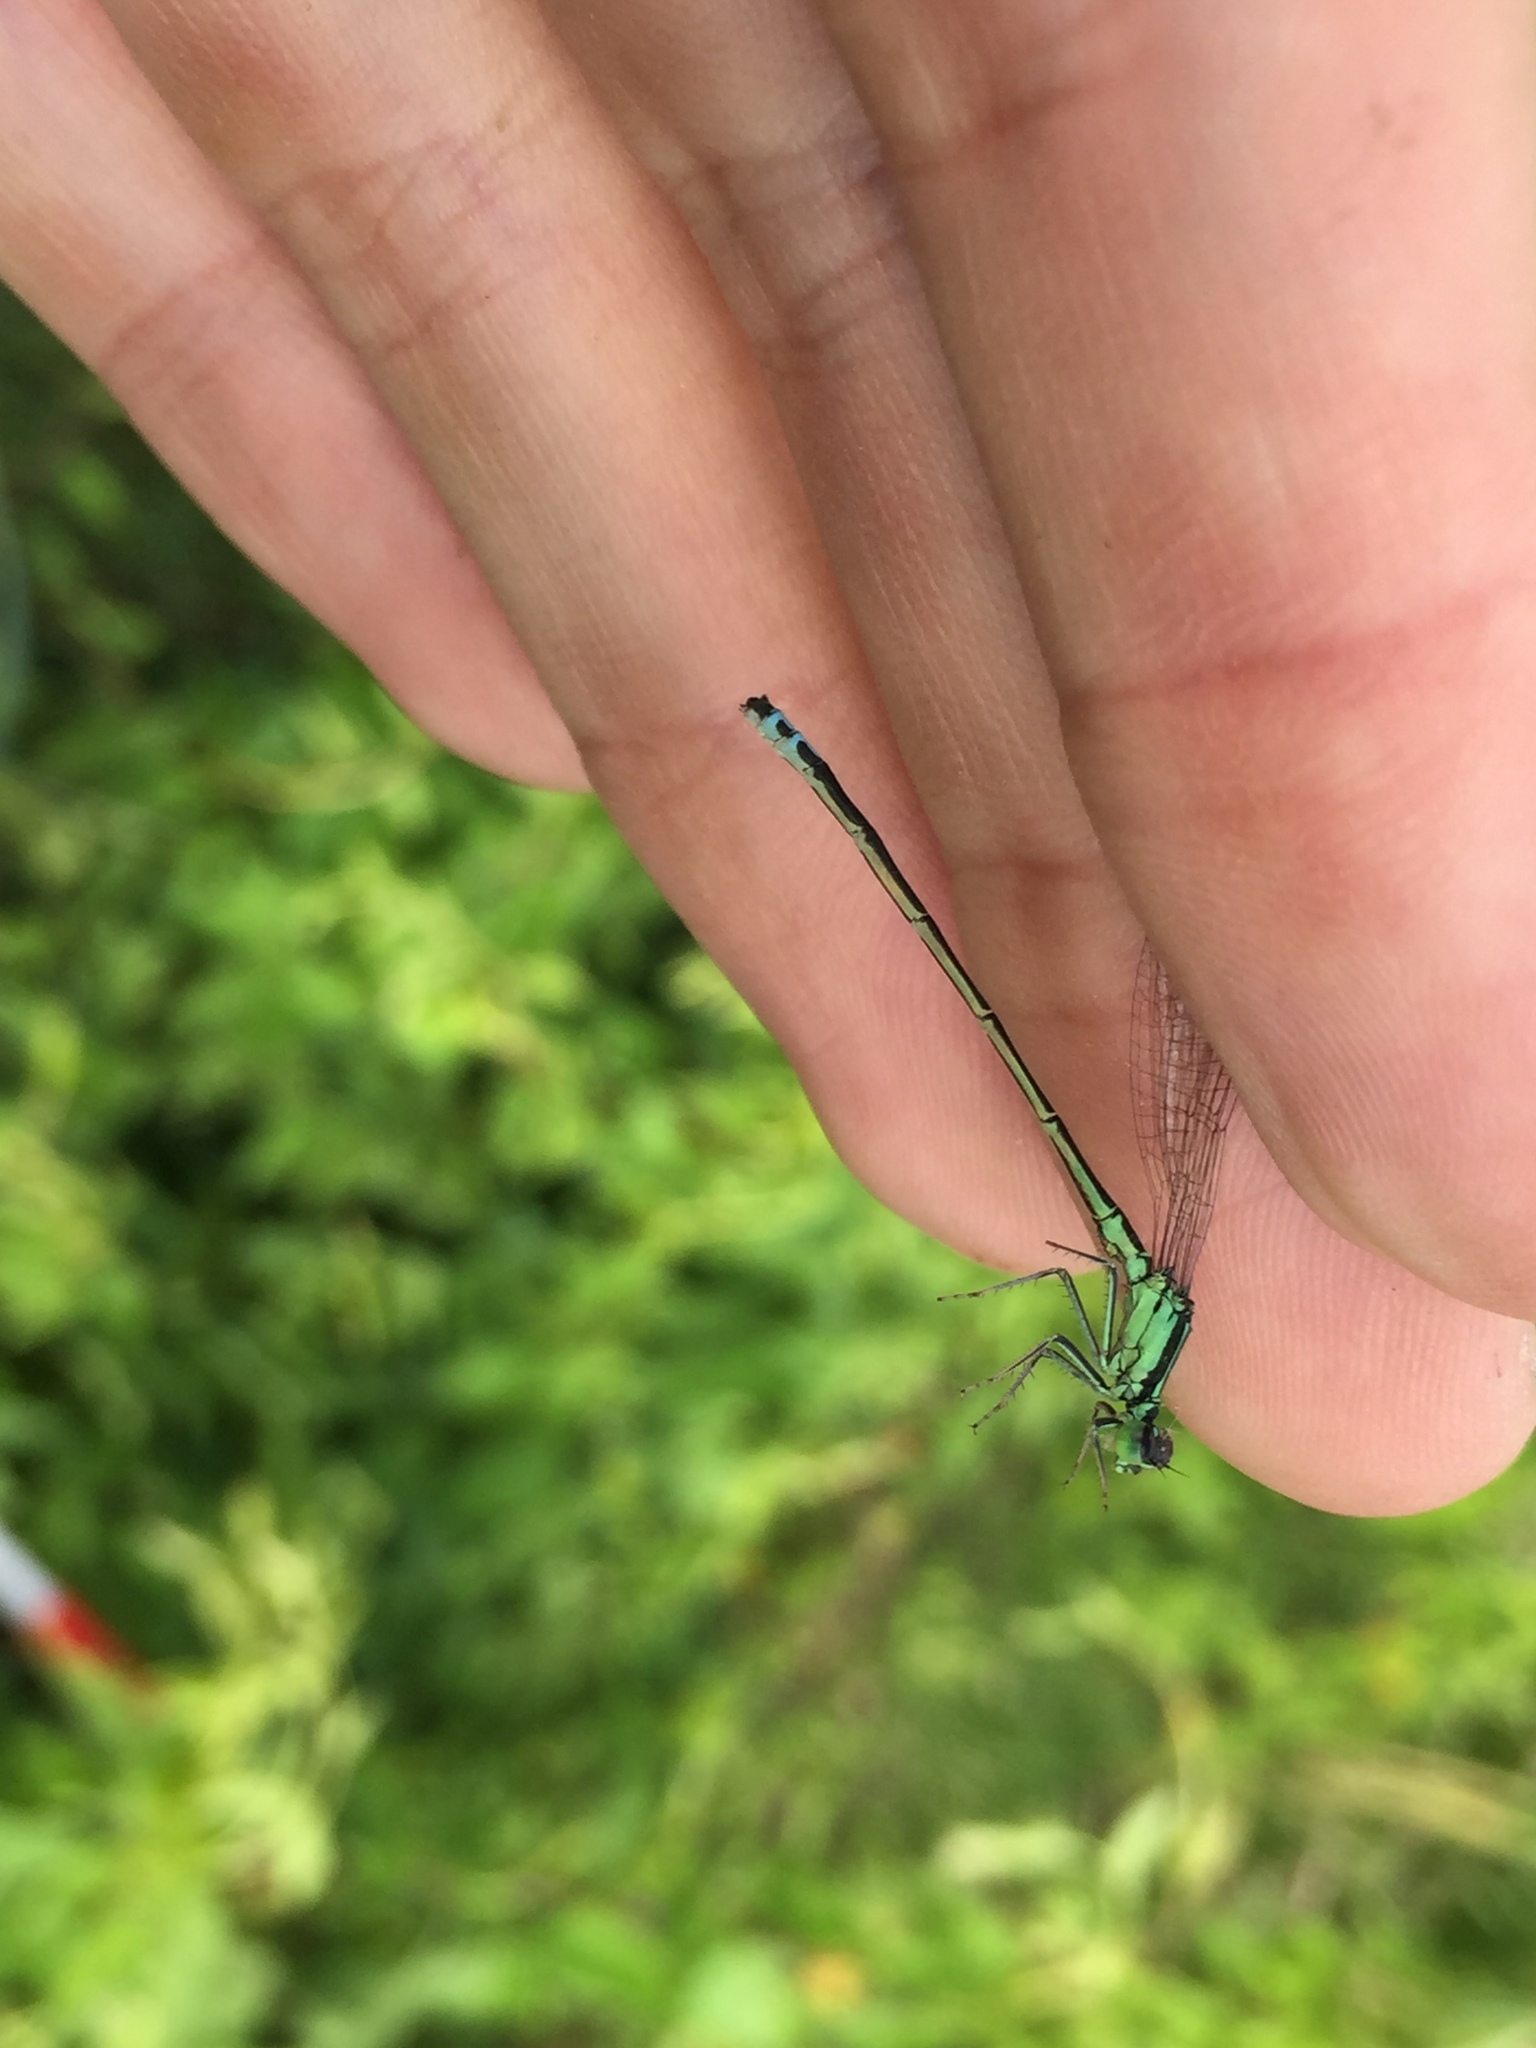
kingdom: Animalia
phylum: Arthropoda
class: Insecta
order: Odonata
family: Coenagrionidae
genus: Ischnura
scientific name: Ischnura verticalis
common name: Eastern forktail
